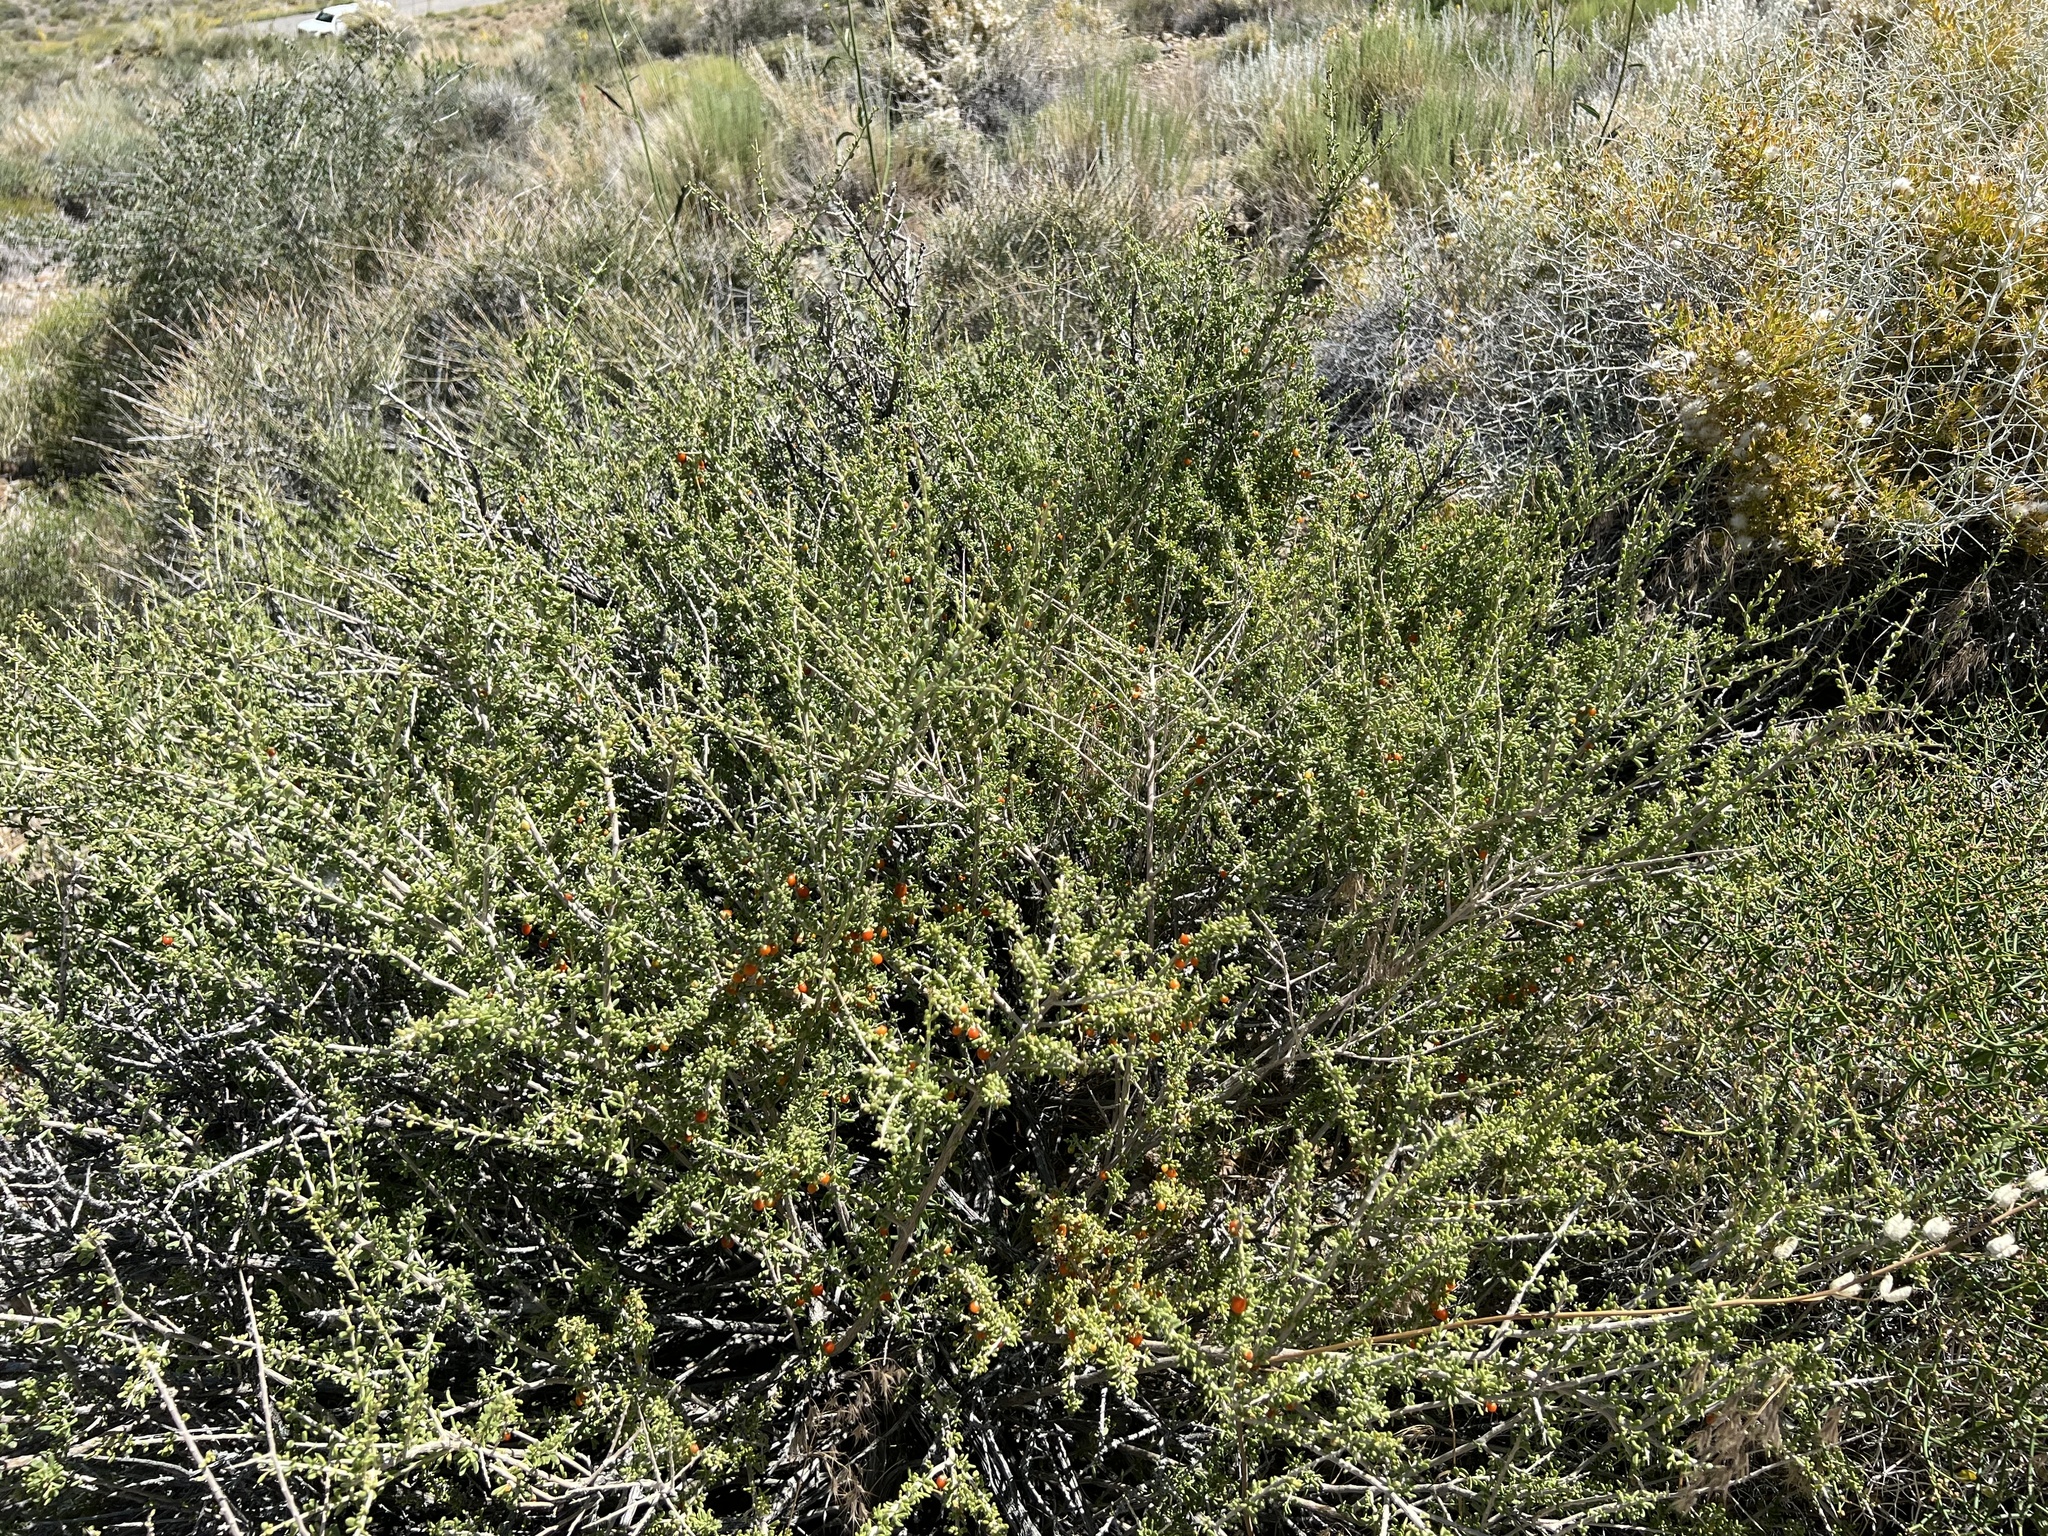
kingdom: Plantae
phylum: Tracheophyta
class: Magnoliopsida
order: Solanales
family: Solanaceae
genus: Lycium
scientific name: Lycium andersonii
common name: Water-jacket
